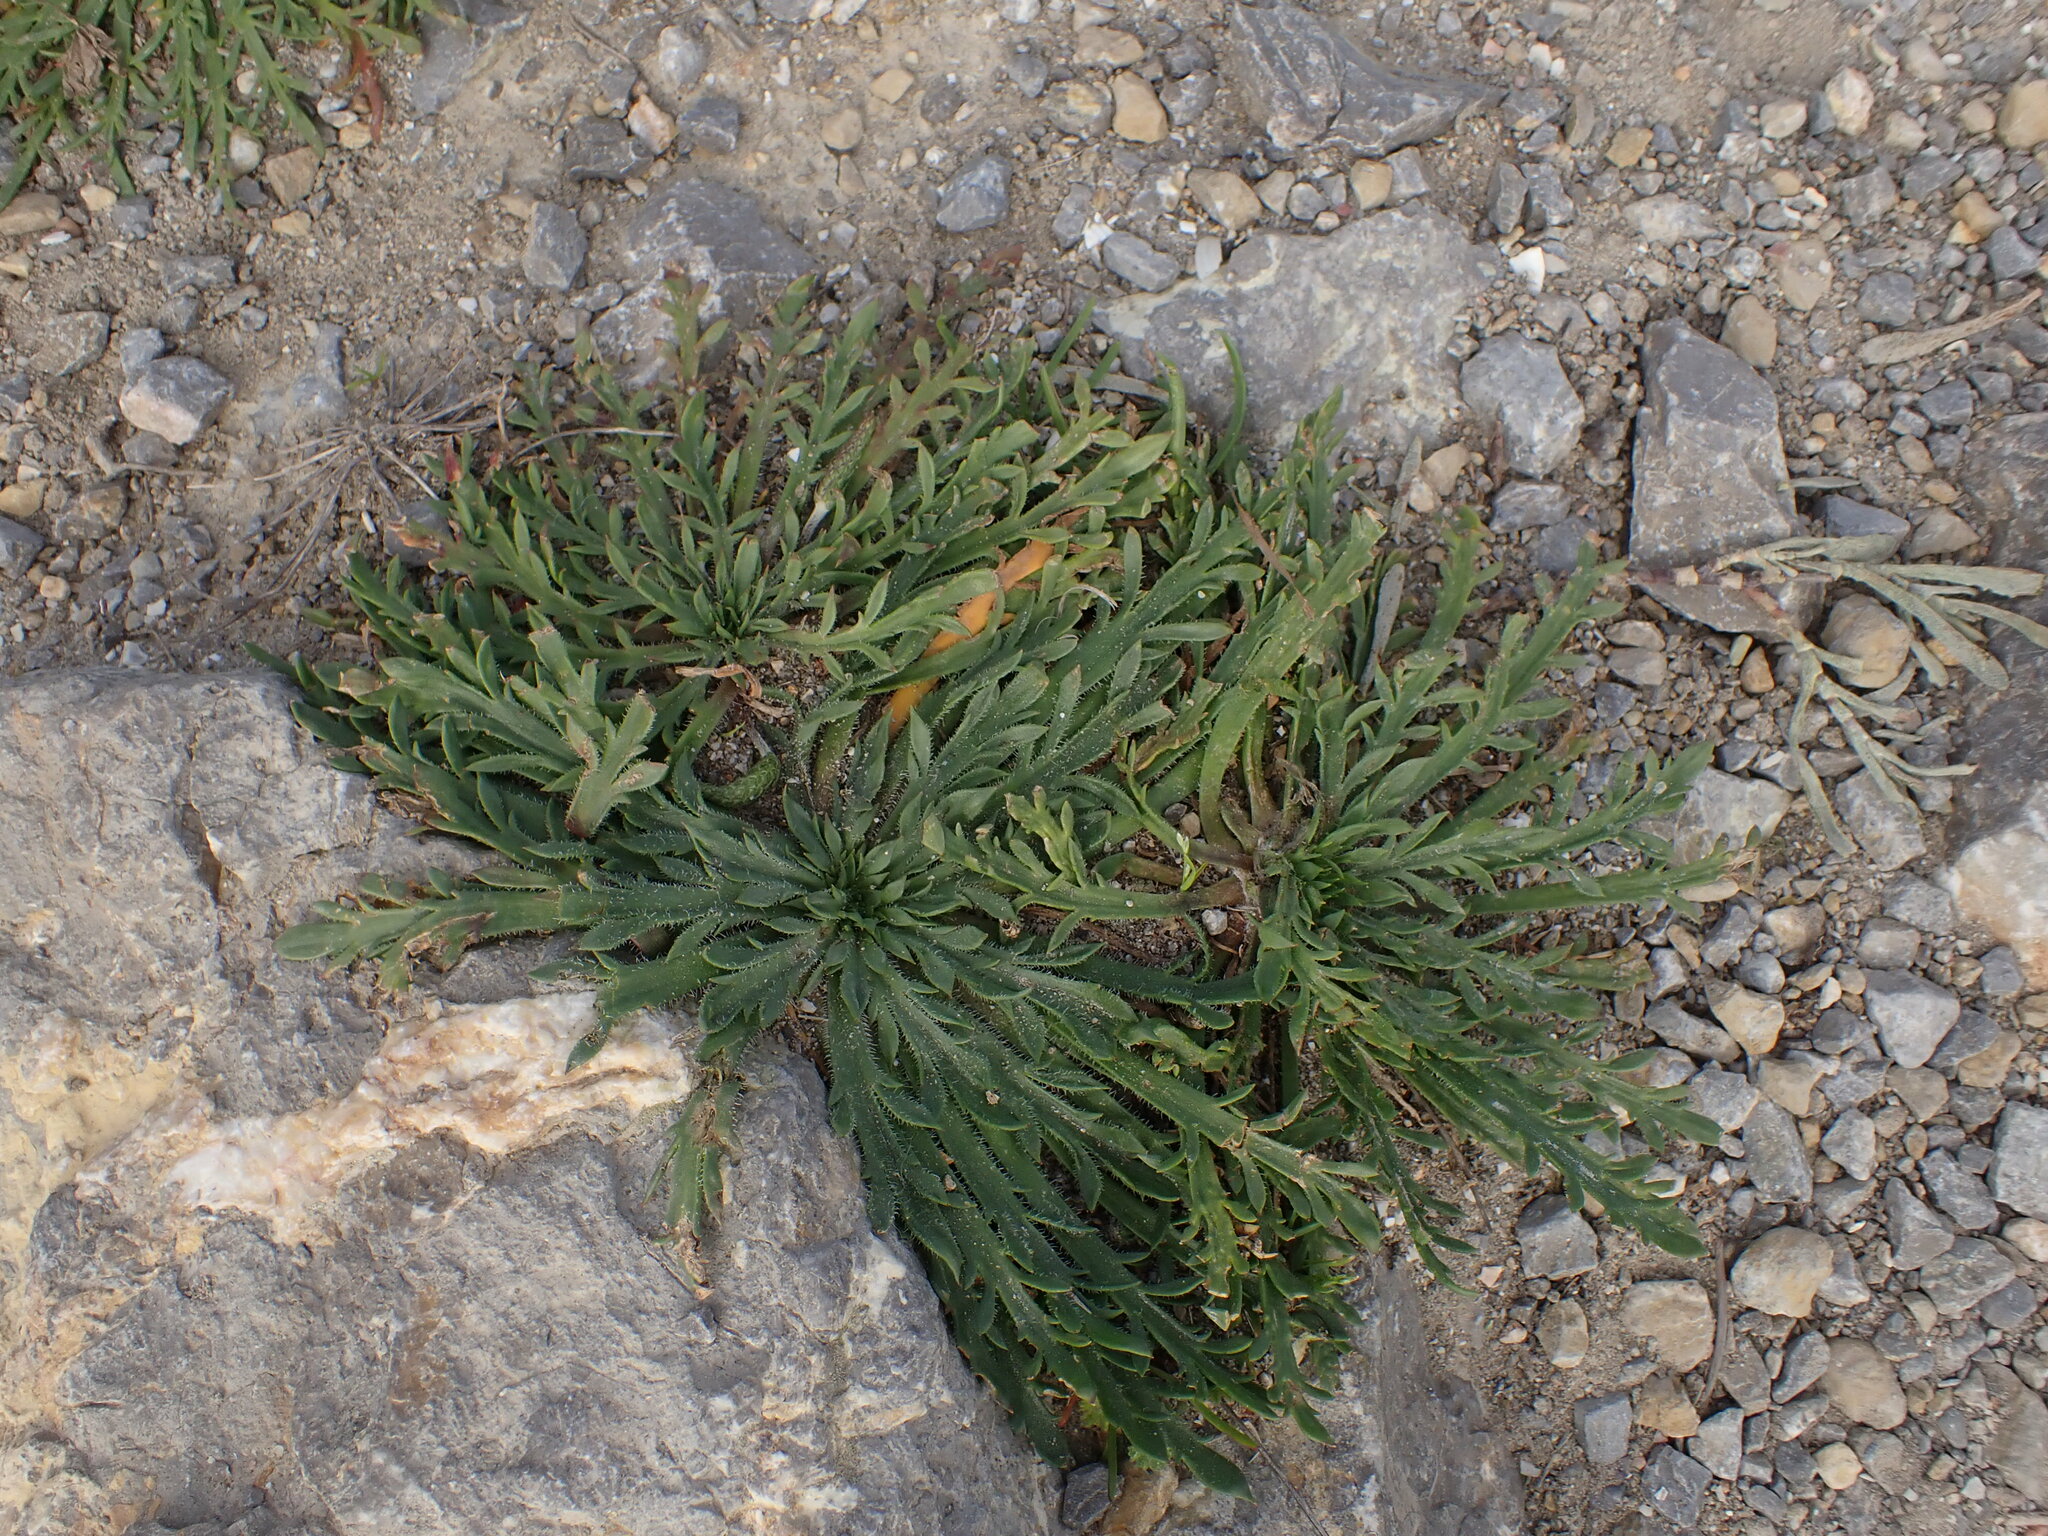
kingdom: Plantae
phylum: Tracheophyta
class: Magnoliopsida
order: Lamiales
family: Plantaginaceae
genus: Plantago
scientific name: Plantago coronopus
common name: Buck's-horn plantain
